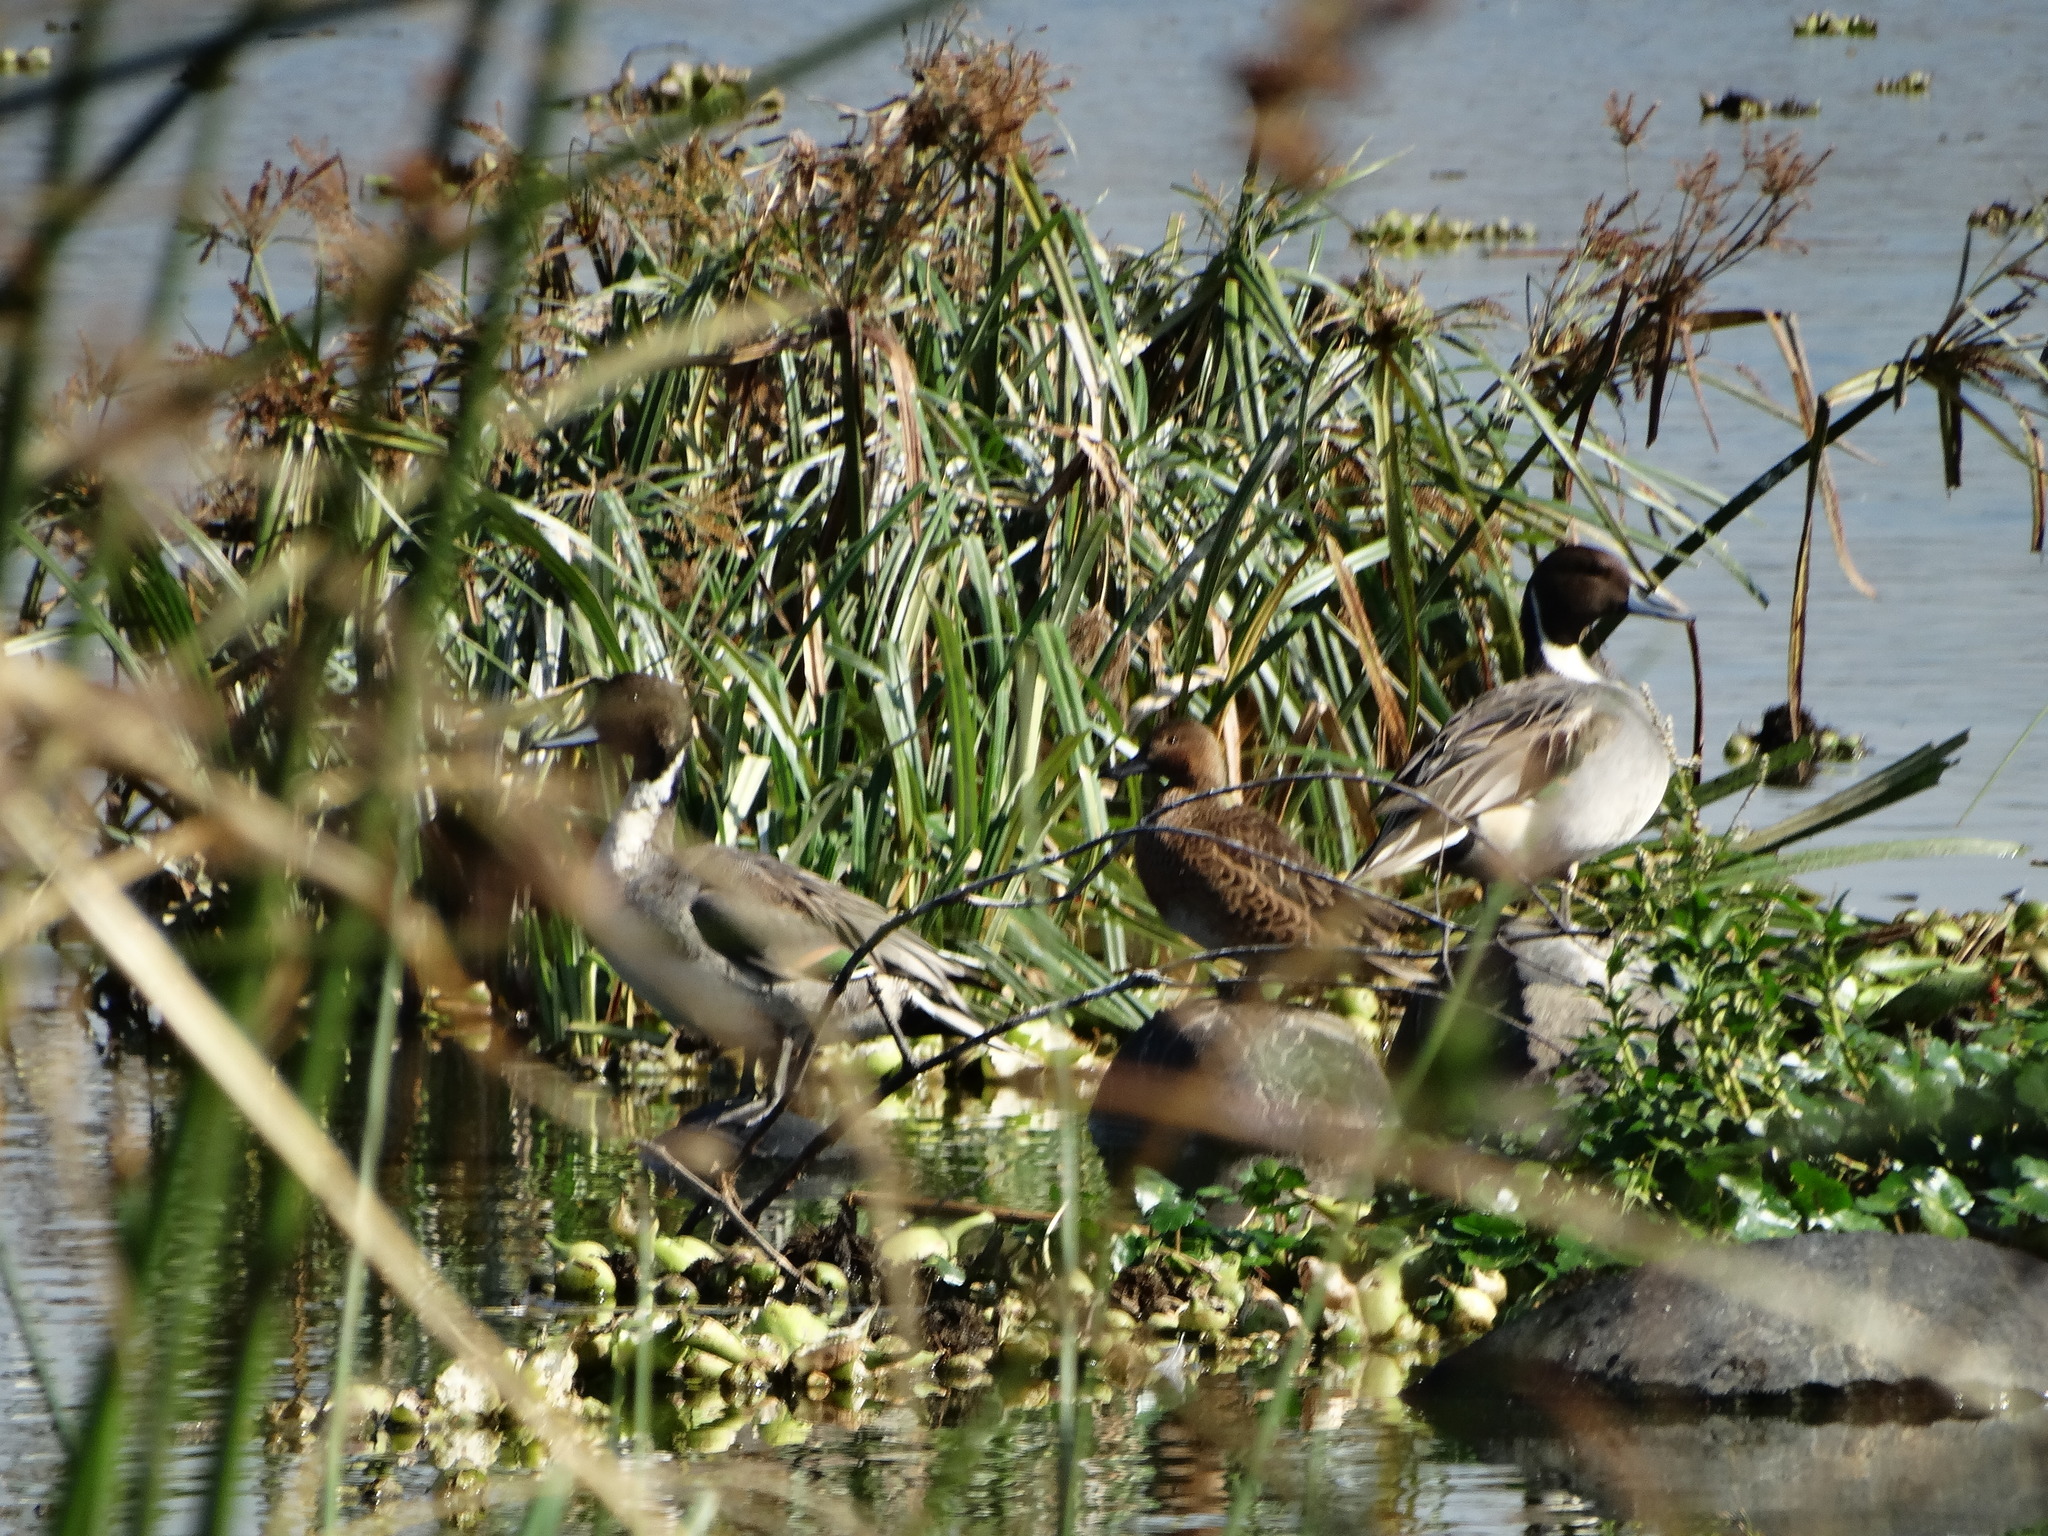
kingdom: Animalia
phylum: Chordata
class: Aves
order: Anseriformes
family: Anatidae
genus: Spatula
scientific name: Spatula cyanoptera
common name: Cinnamon teal
